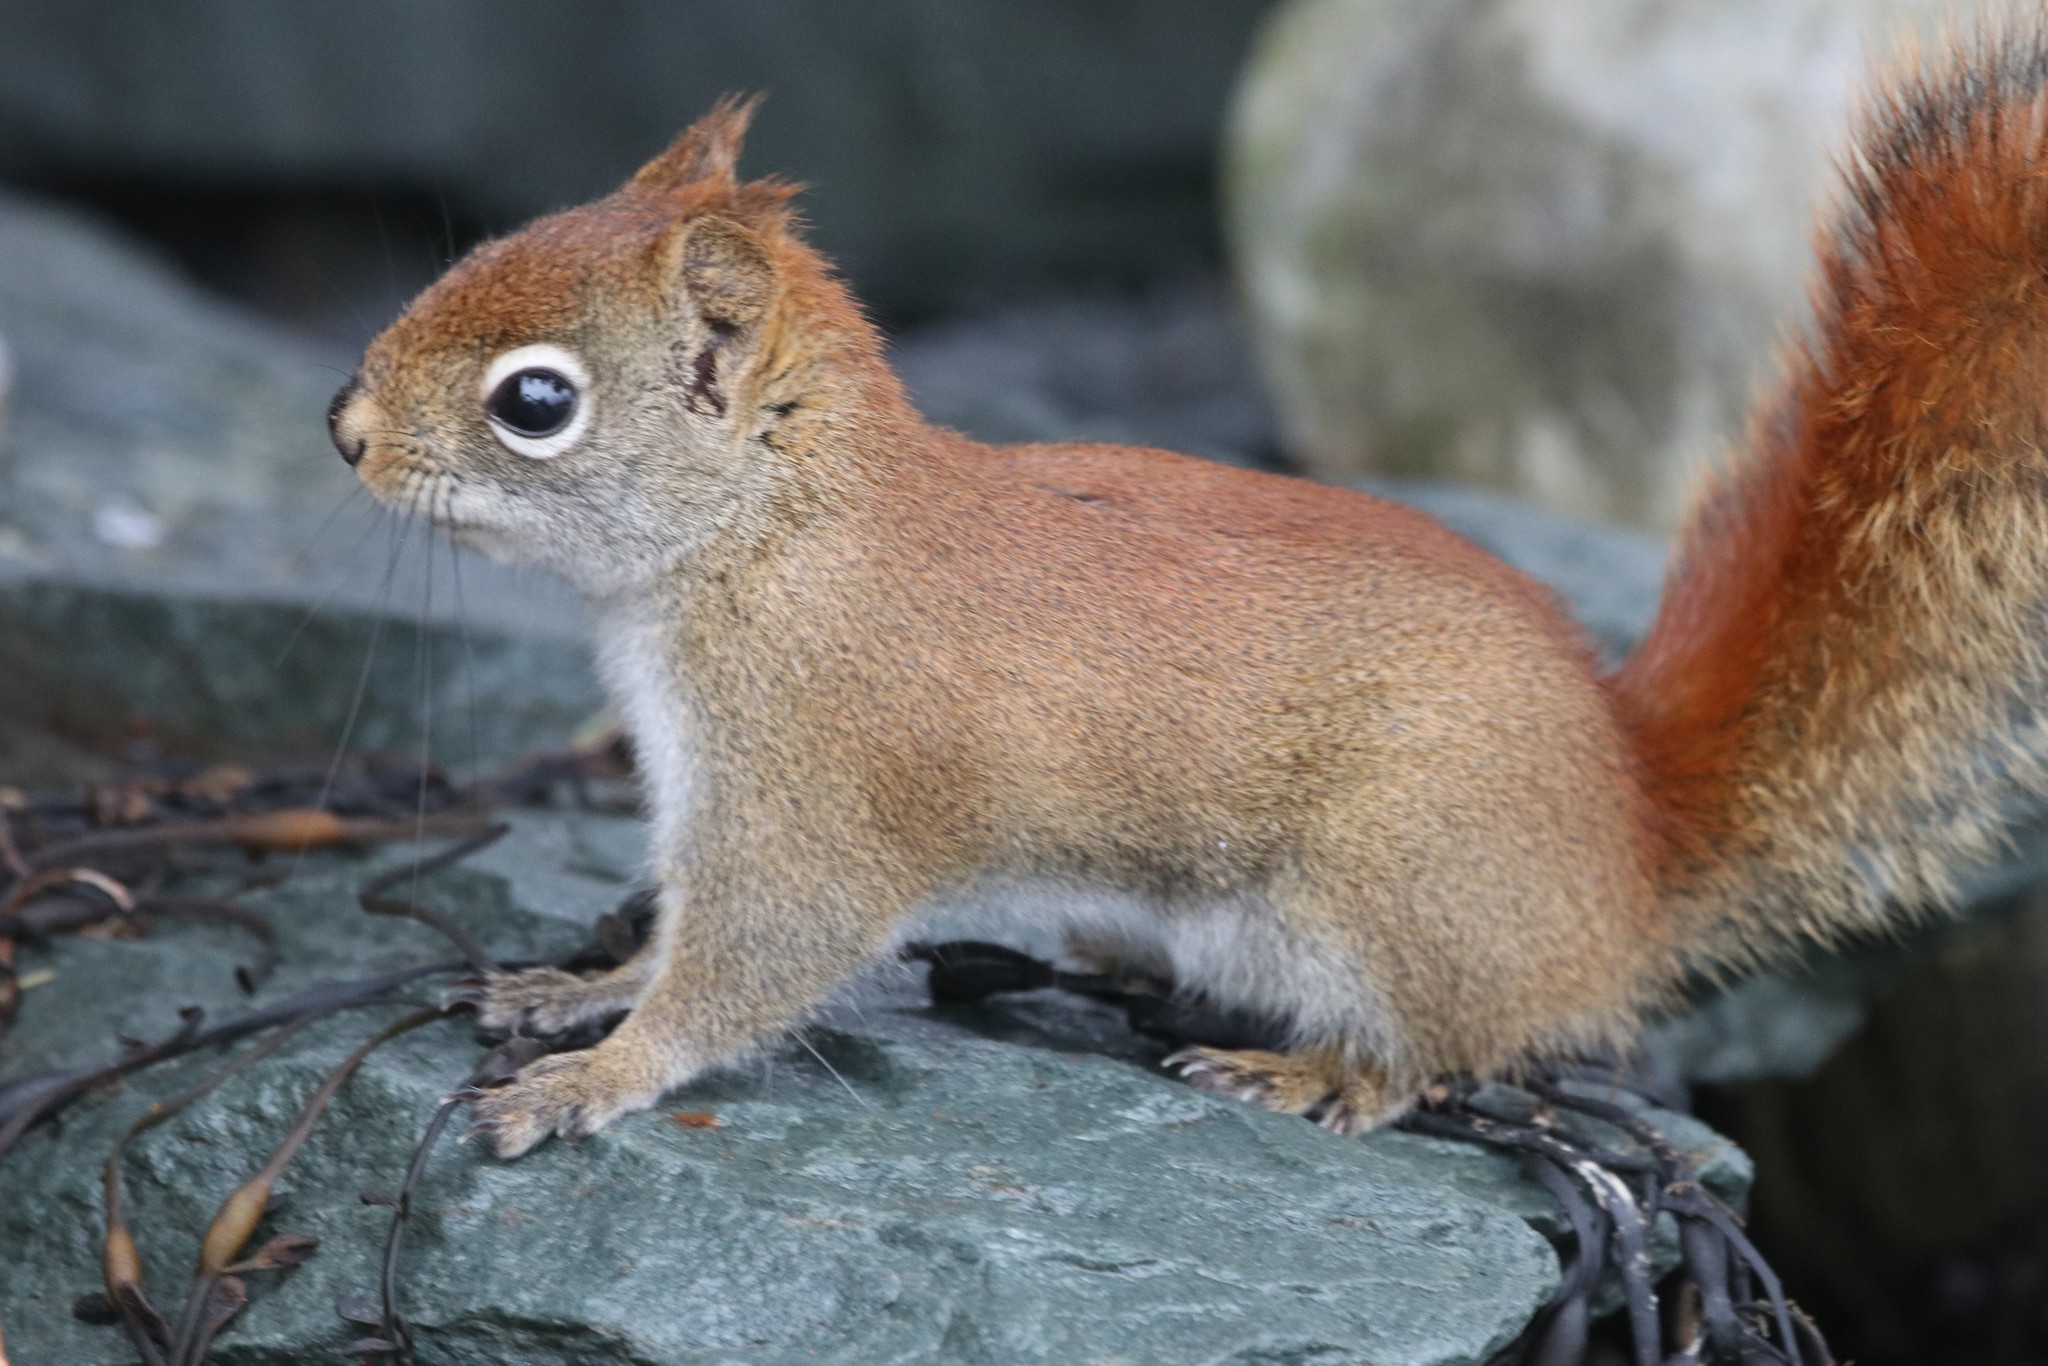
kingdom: Animalia
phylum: Chordata
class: Mammalia
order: Rodentia
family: Sciuridae
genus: Tamiasciurus
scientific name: Tamiasciurus hudsonicus
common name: Red squirrel
